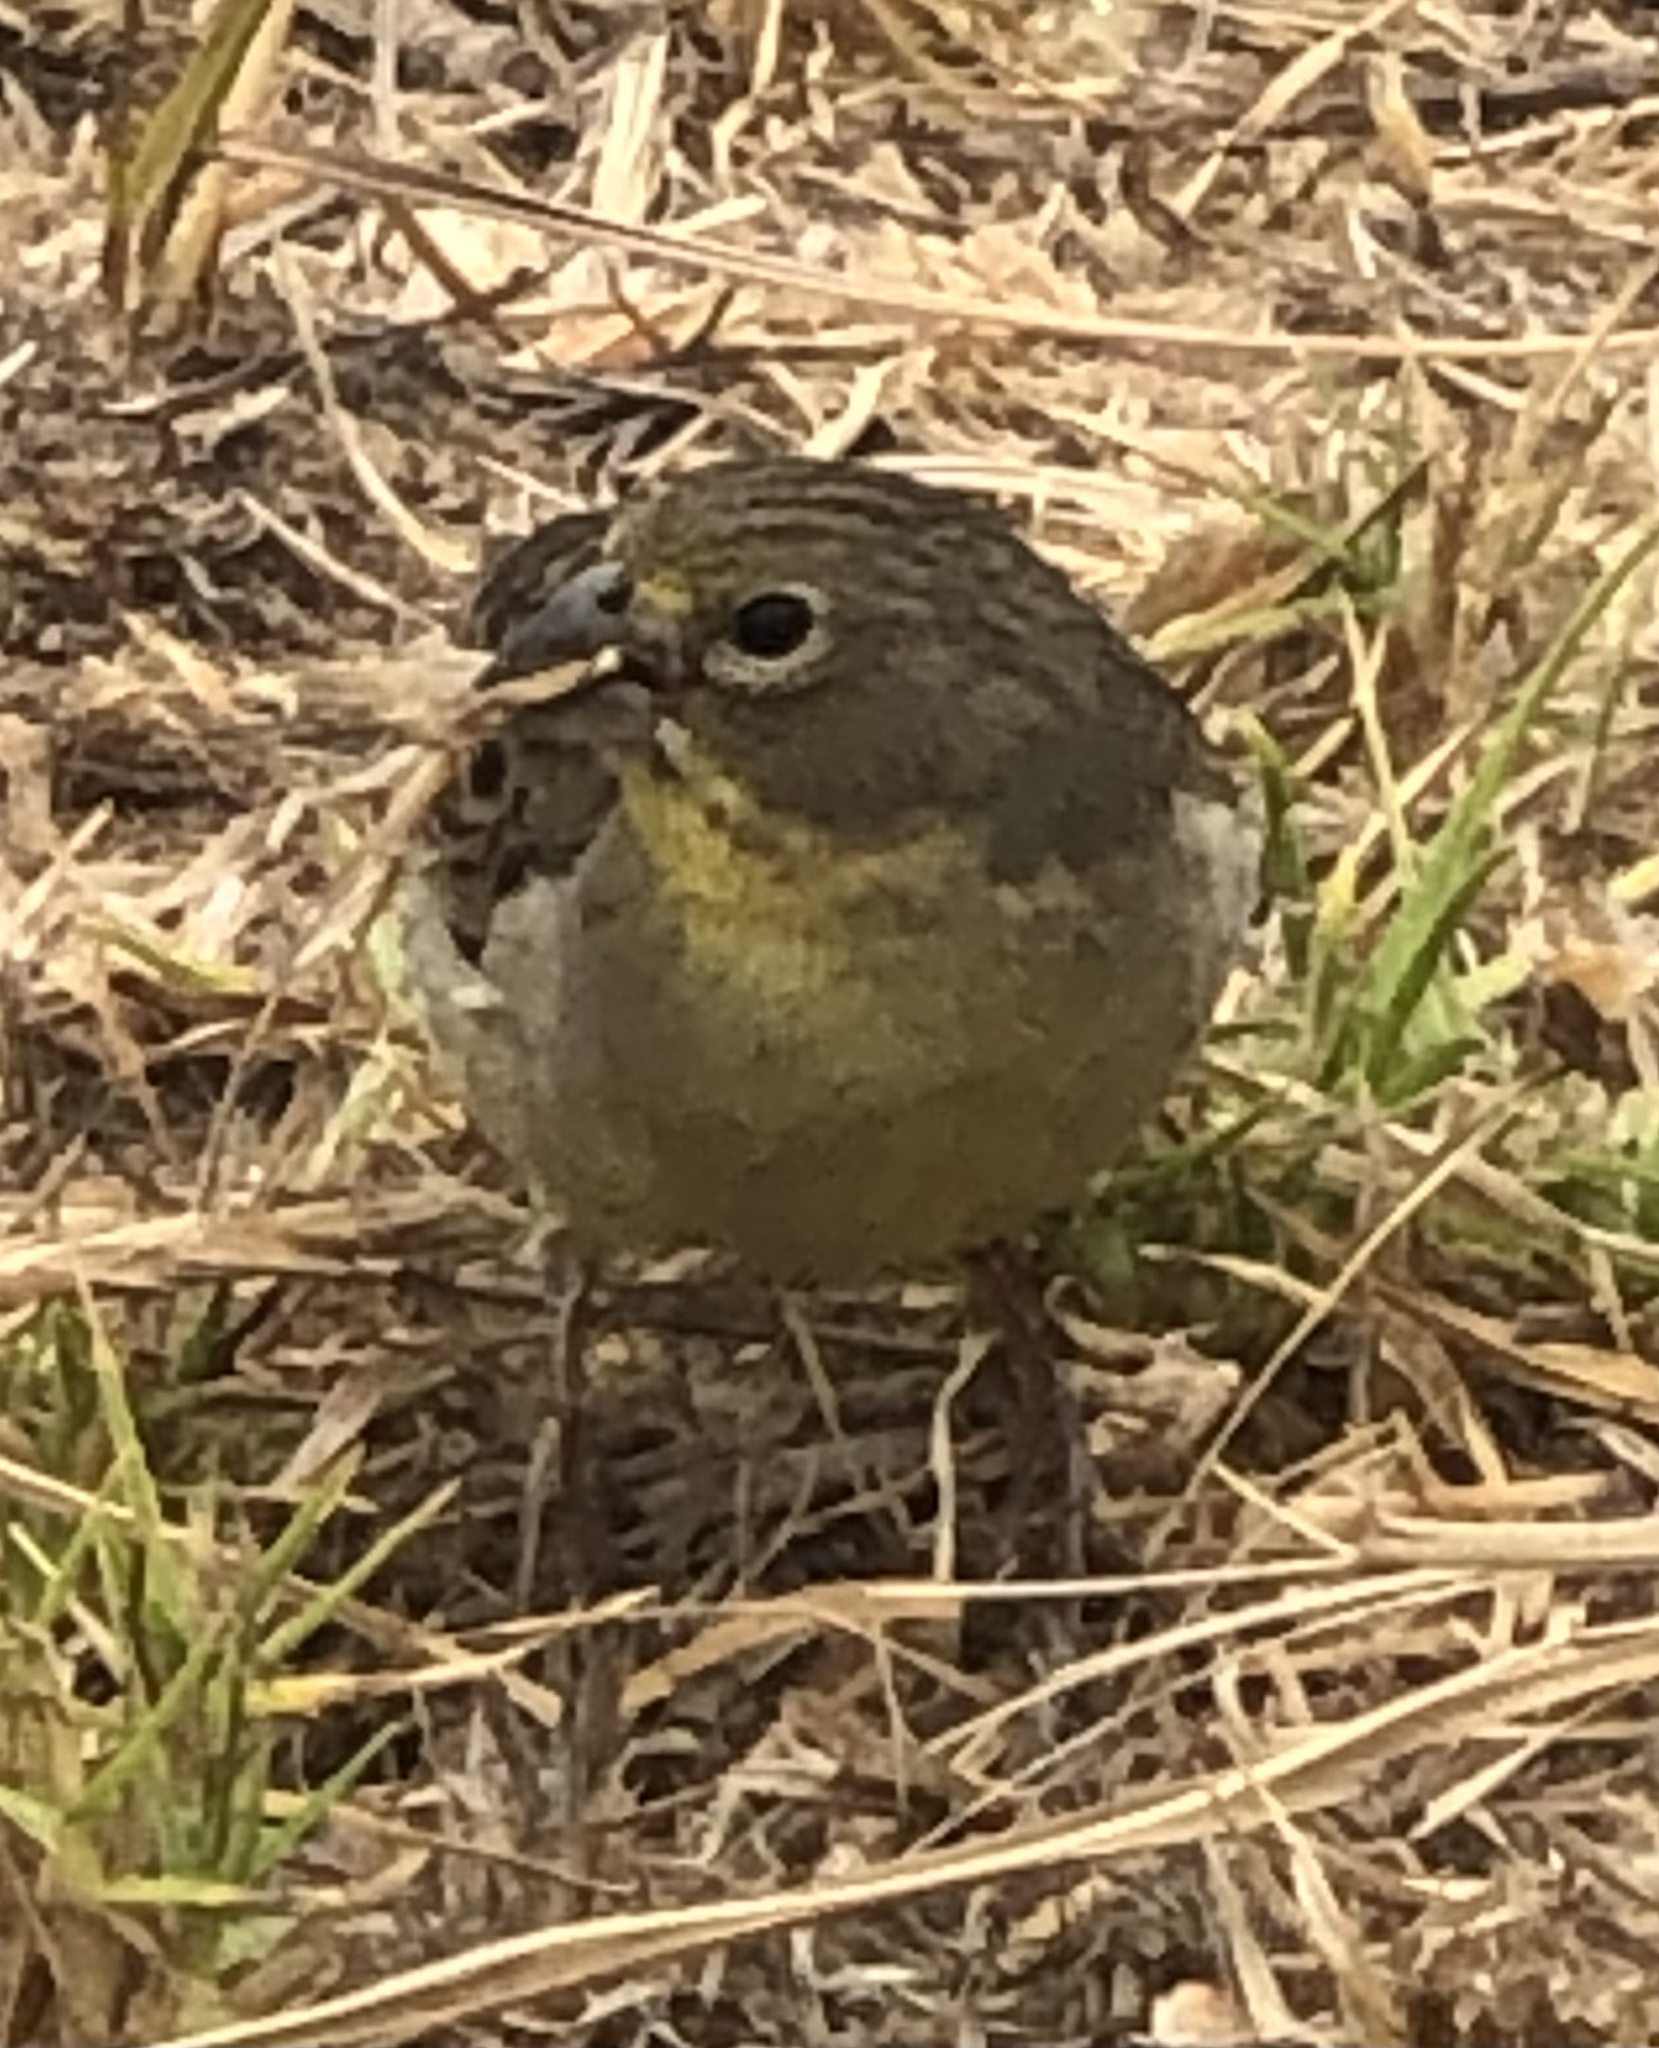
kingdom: Animalia
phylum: Chordata
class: Aves
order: Passeriformes
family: Thraupidae
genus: Sicalis
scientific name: Sicalis luteola
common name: Grassland yellow-finch
